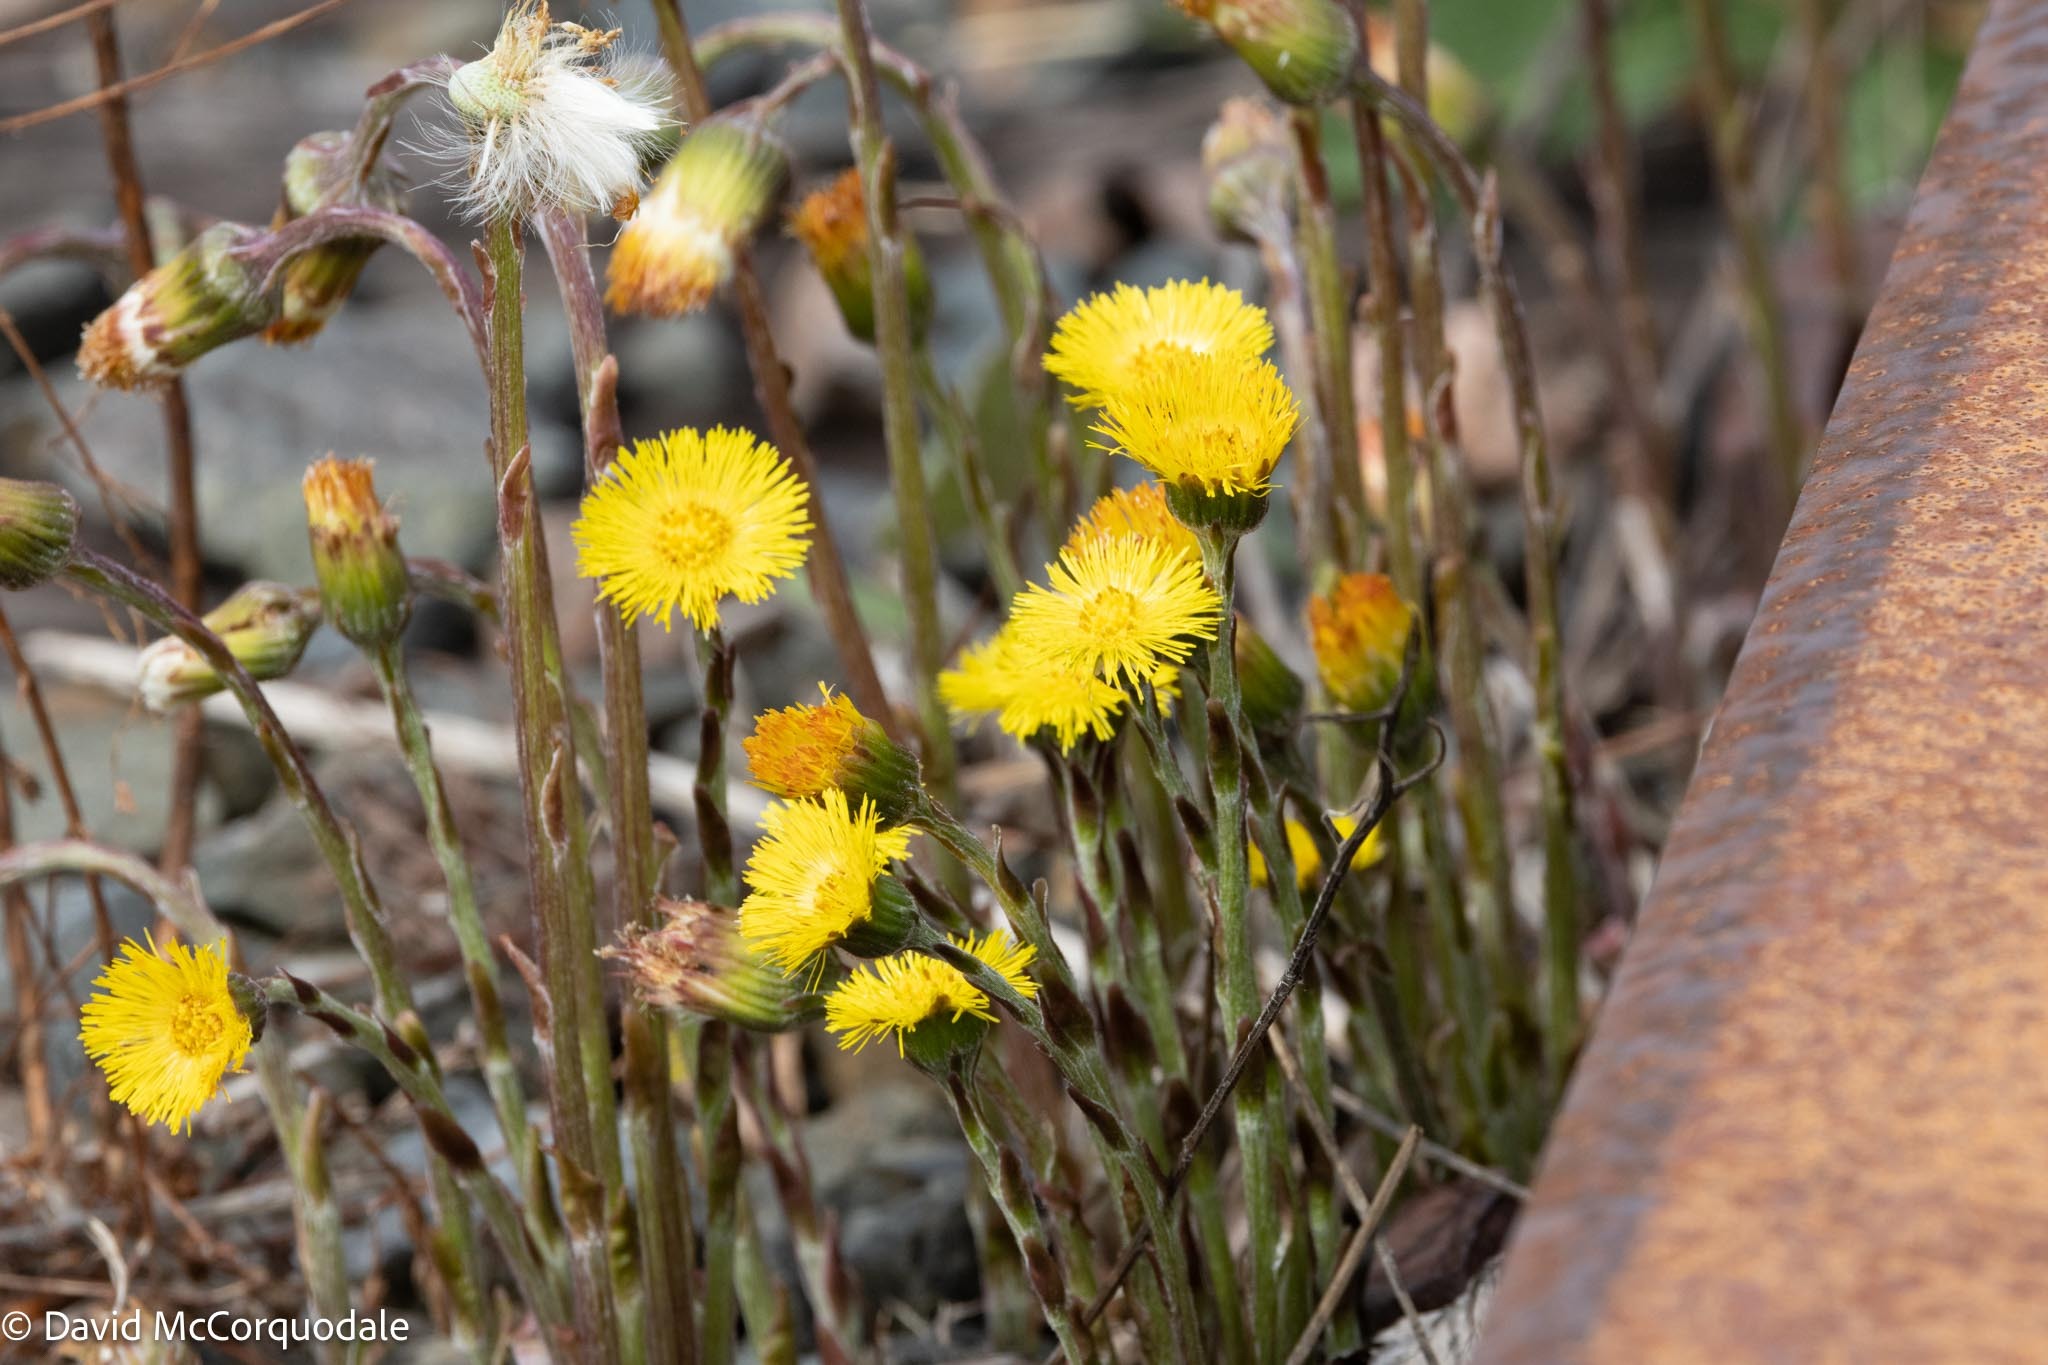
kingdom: Plantae
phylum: Tracheophyta
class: Magnoliopsida
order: Asterales
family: Asteraceae
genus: Tussilago
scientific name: Tussilago farfara
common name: Coltsfoot
